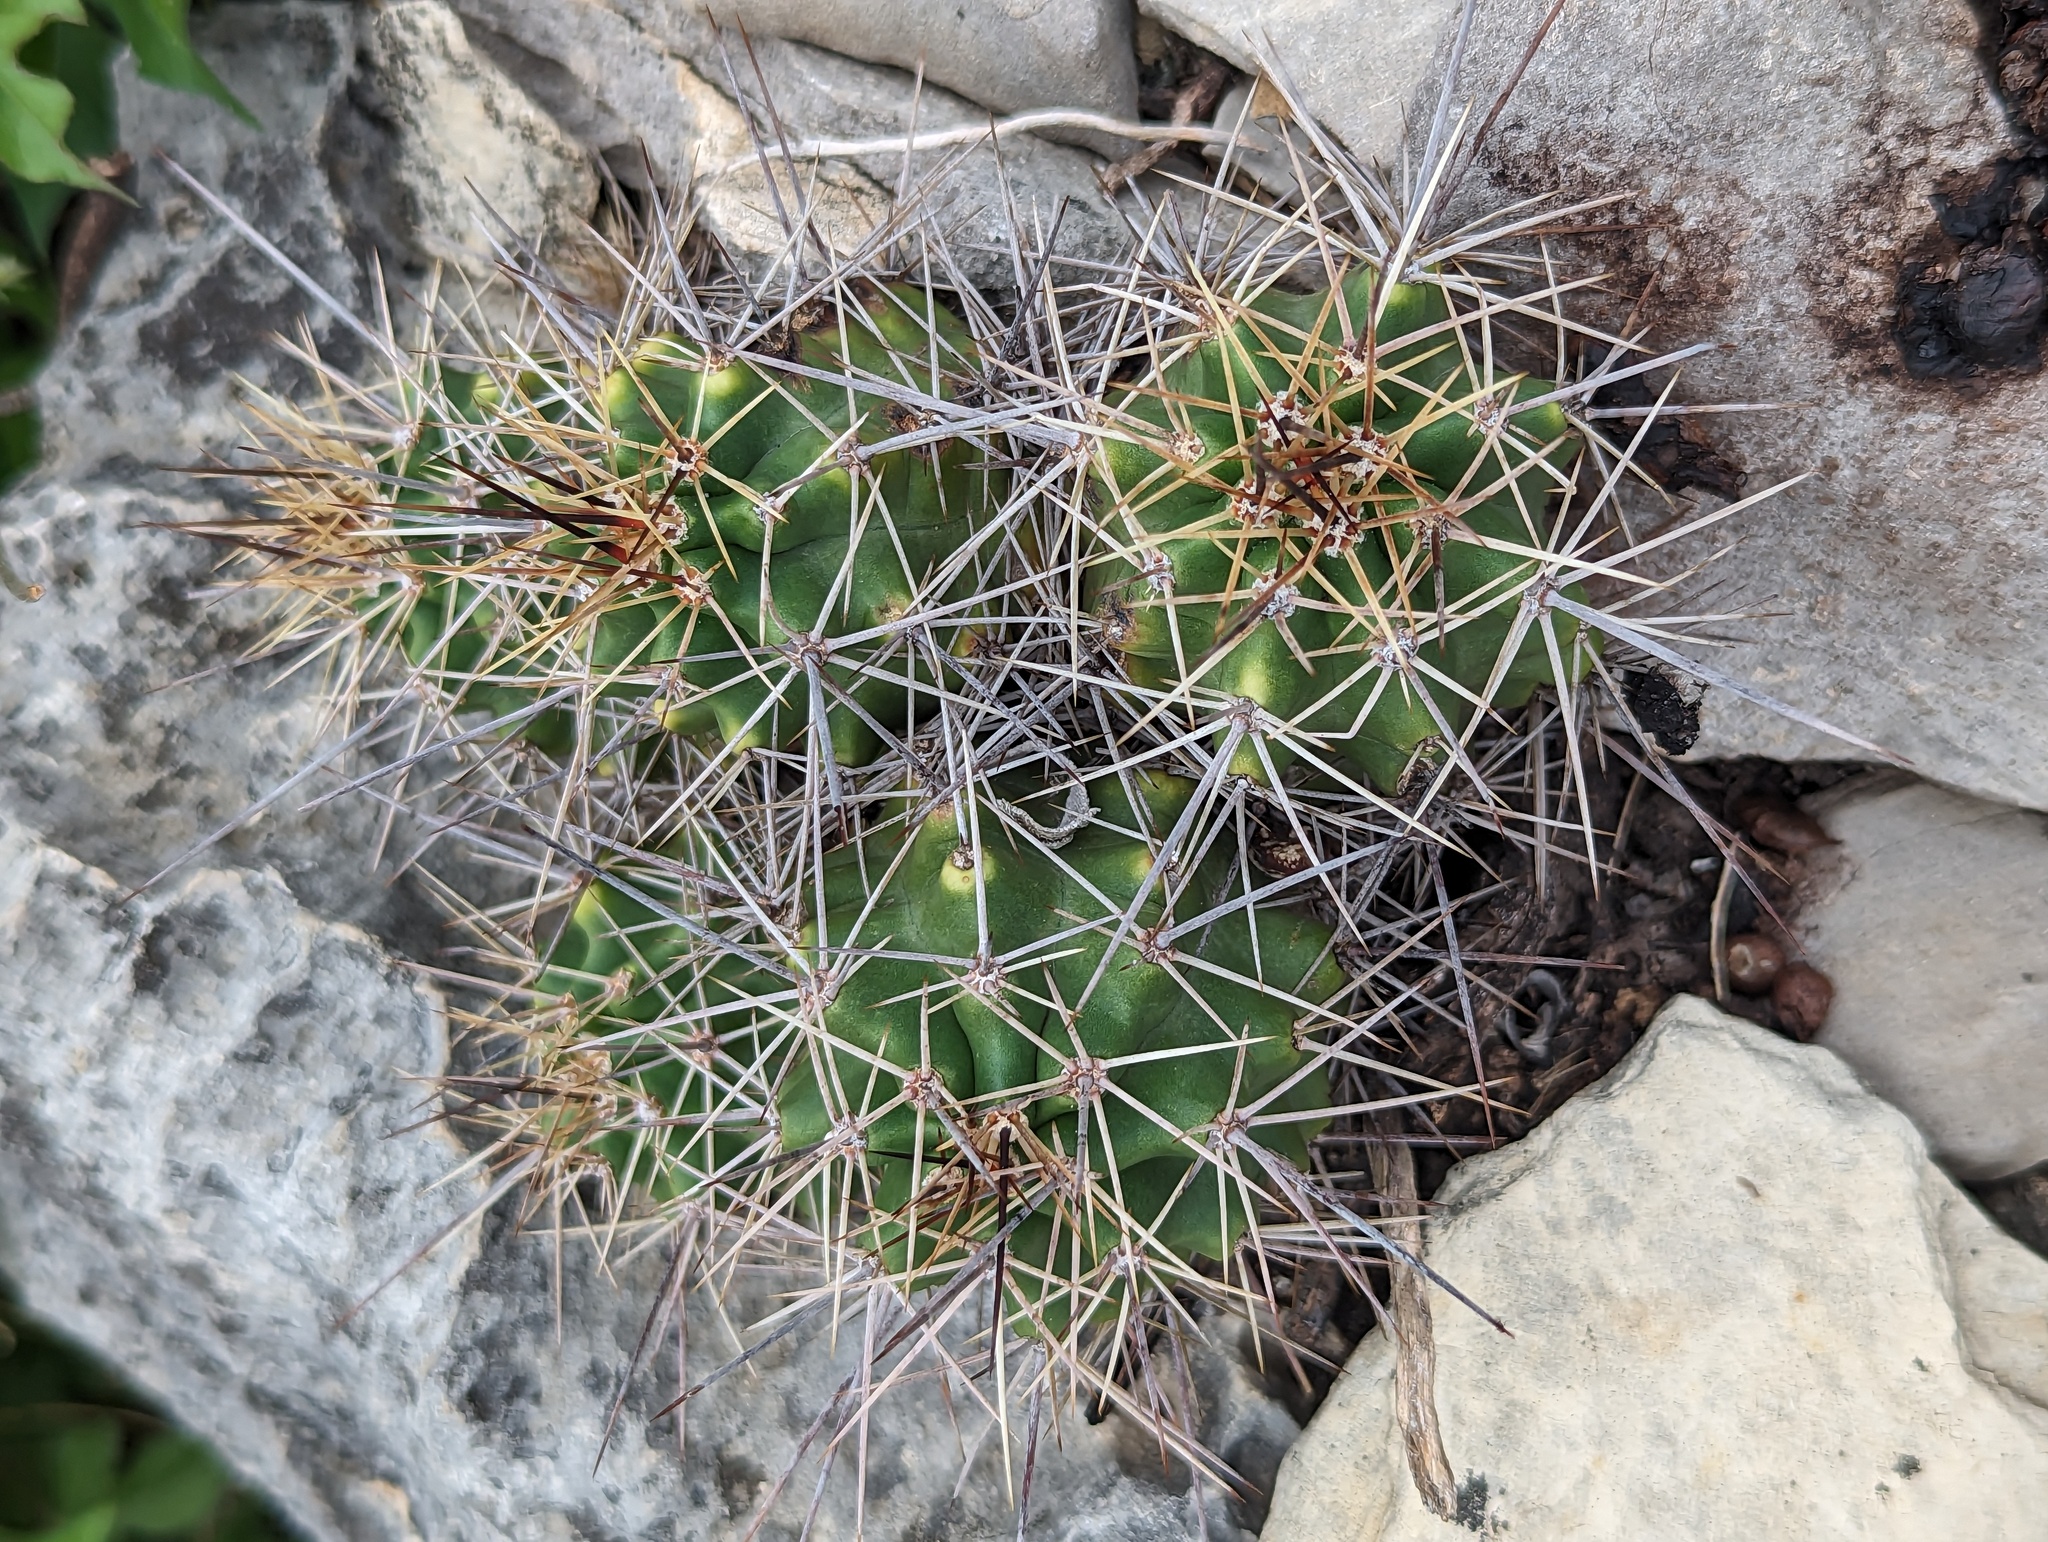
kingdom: Plantae
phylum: Tracheophyta
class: Magnoliopsida
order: Caryophyllales
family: Cactaceae
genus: Echinocereus
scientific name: Echinocereus coccineus
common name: Scarlet hedgehog cactus
